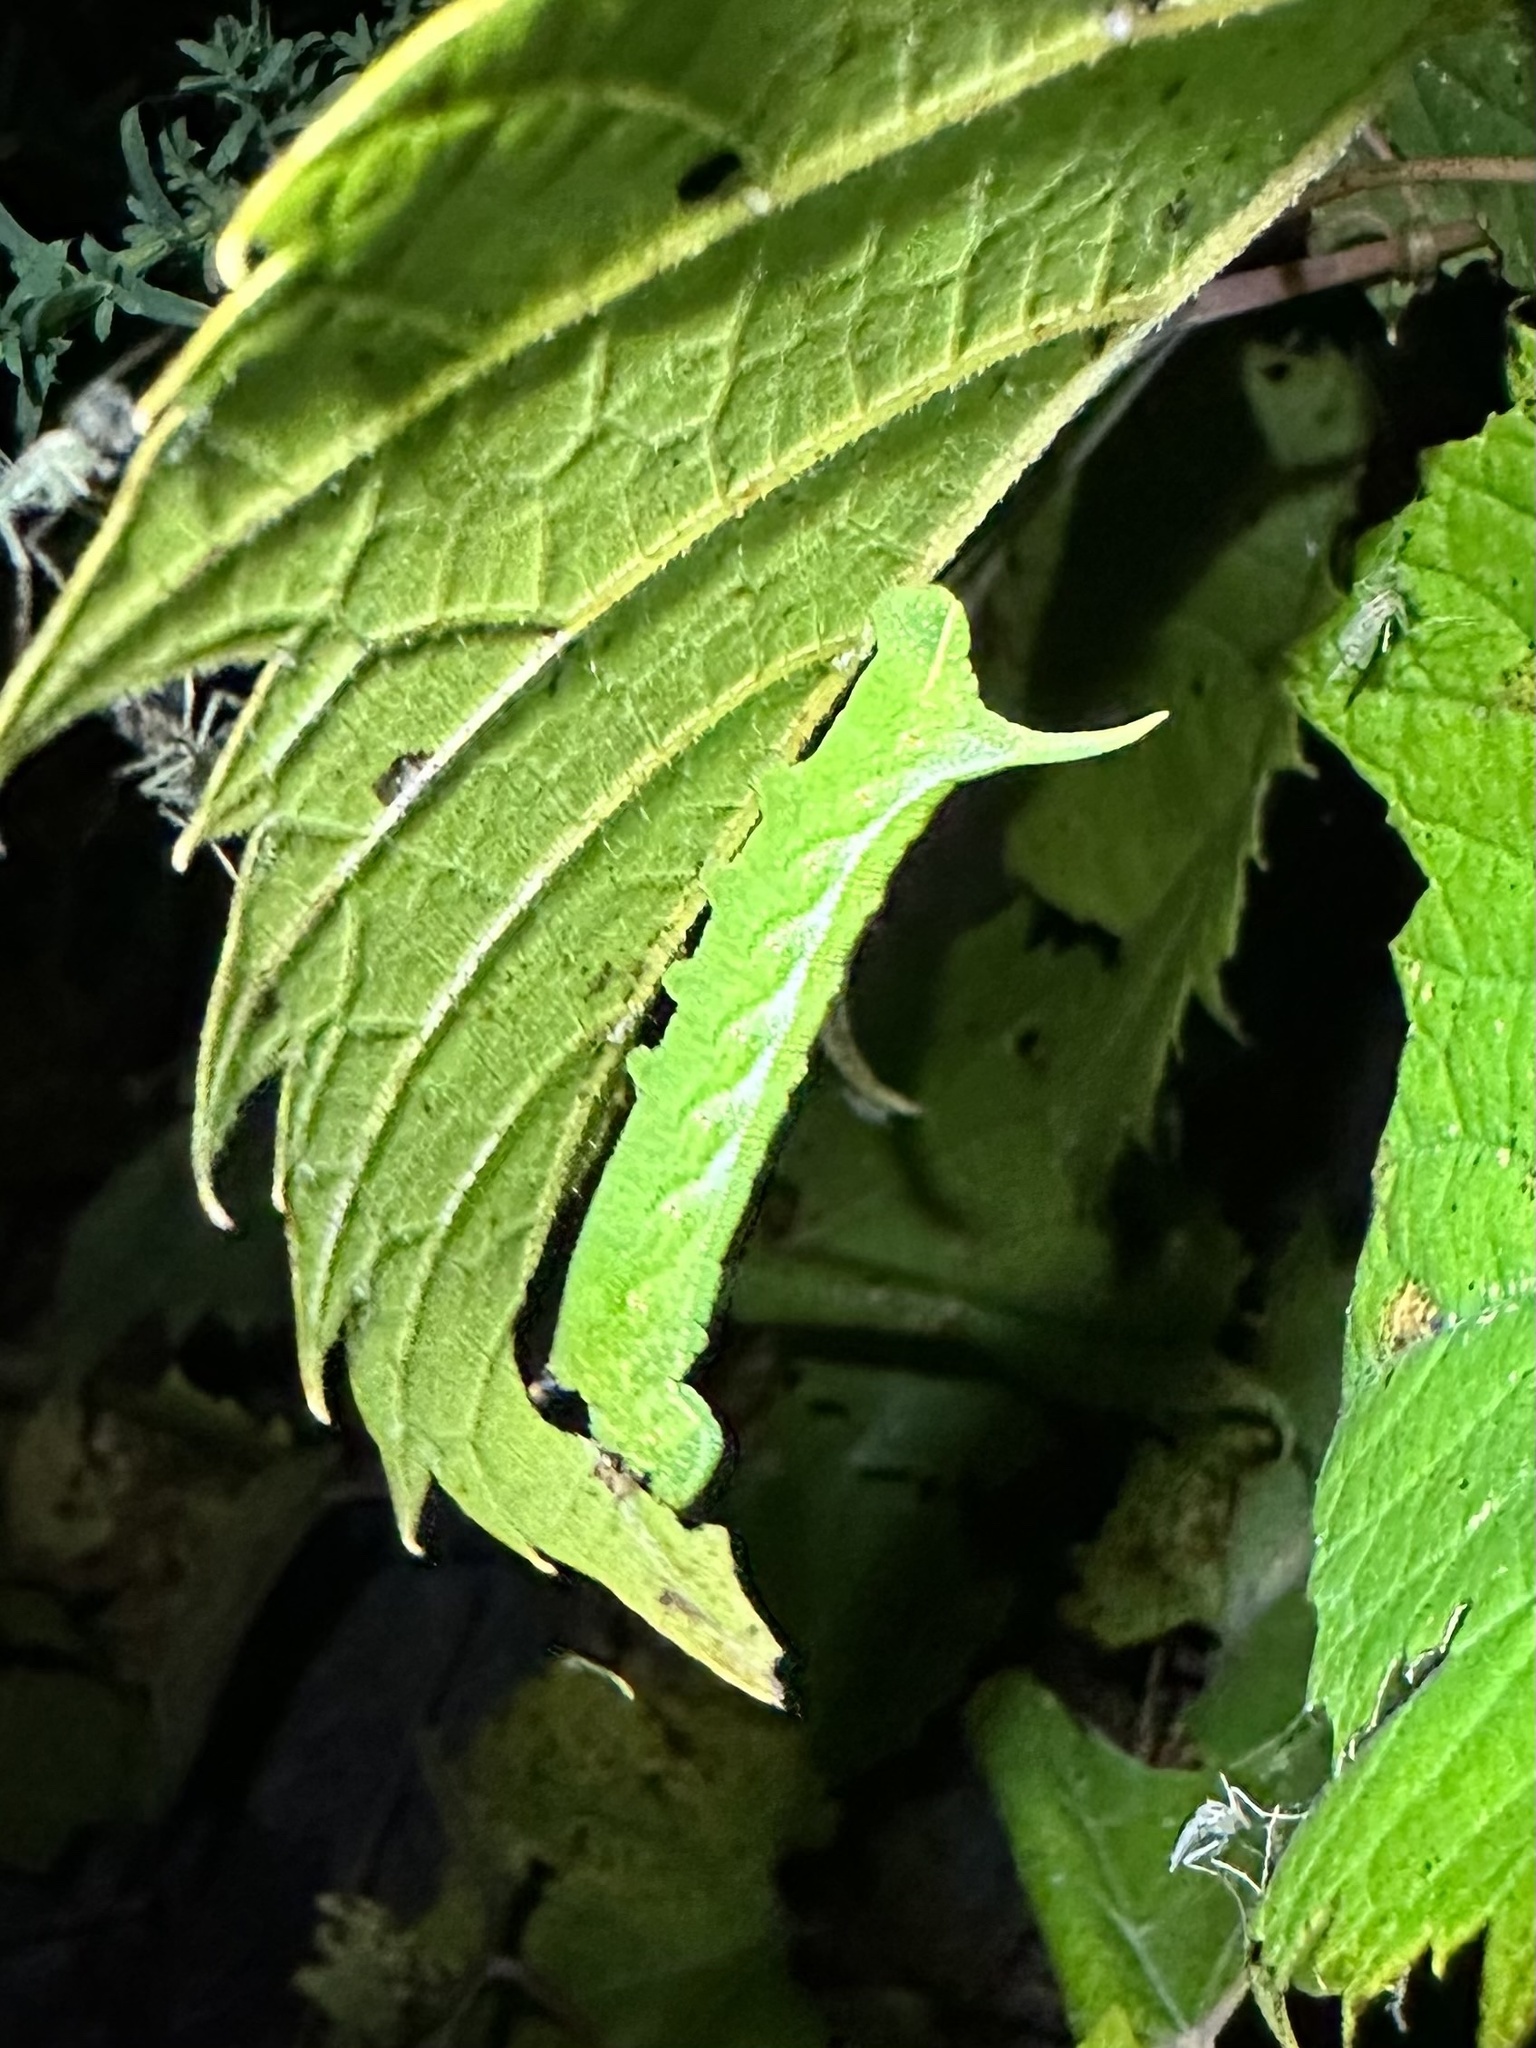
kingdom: Animalia
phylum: Arthropoda
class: Insecta
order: Lepidoptera
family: Sphingidae
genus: Darapsa
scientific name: Darapsa myron
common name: Hog sphinx
